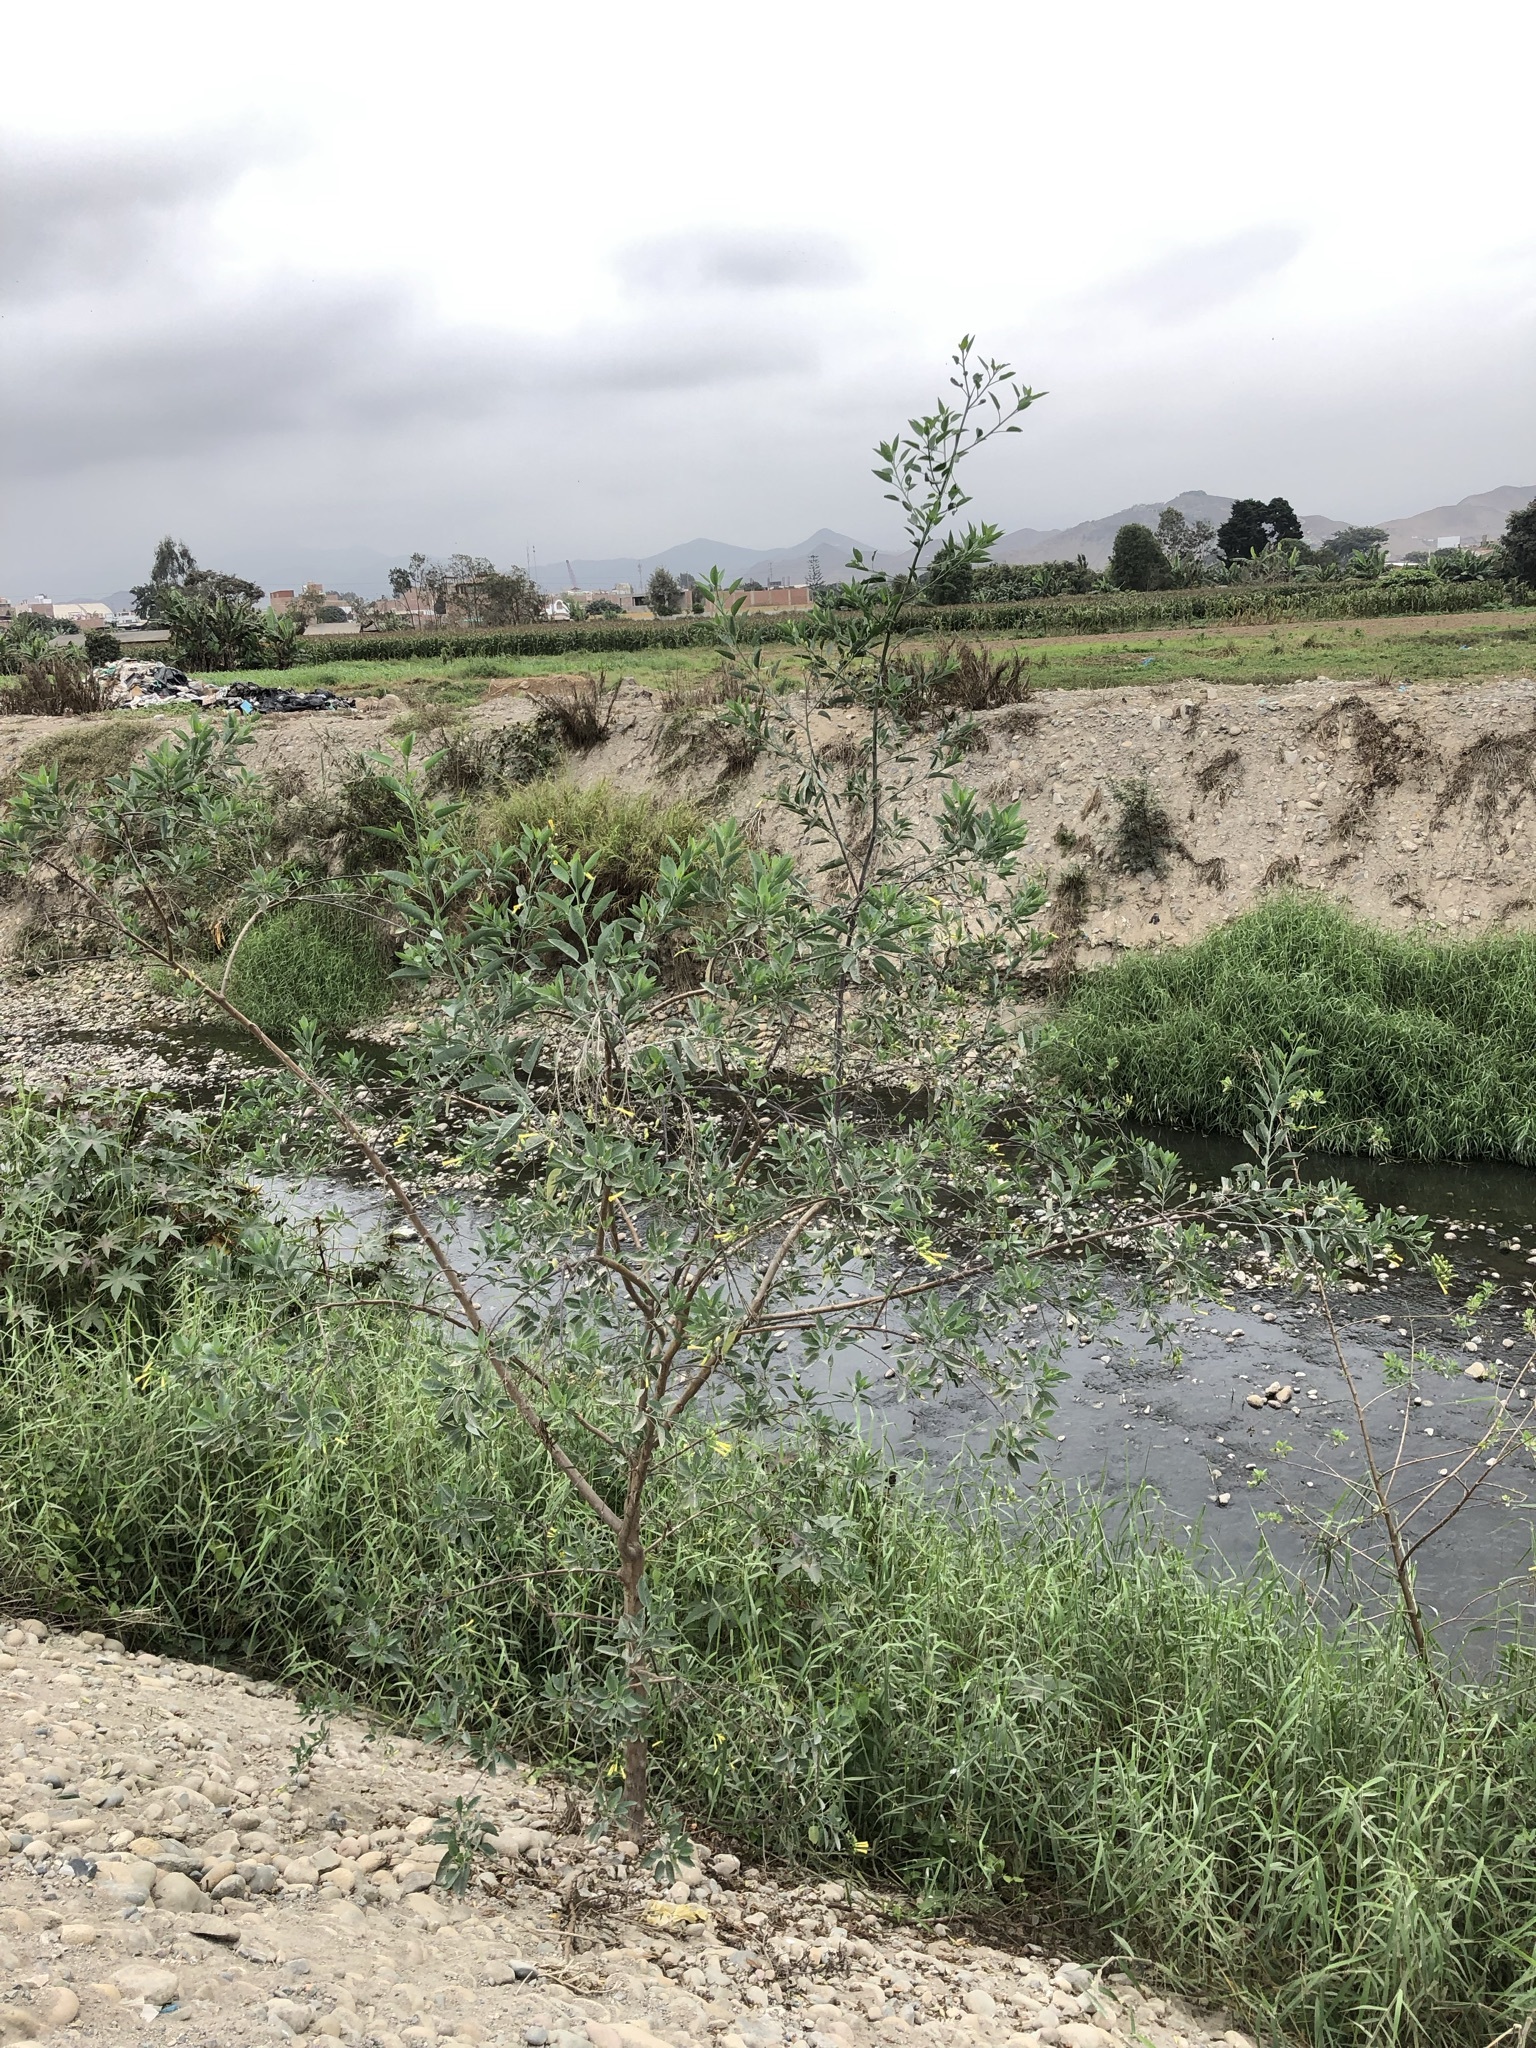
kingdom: Plantae
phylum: Tracheophyta
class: Magnoliopsida
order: Solanales
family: Solanaceae
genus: Nicotiana
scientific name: Nicotiana glauca
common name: Tree tobacco
